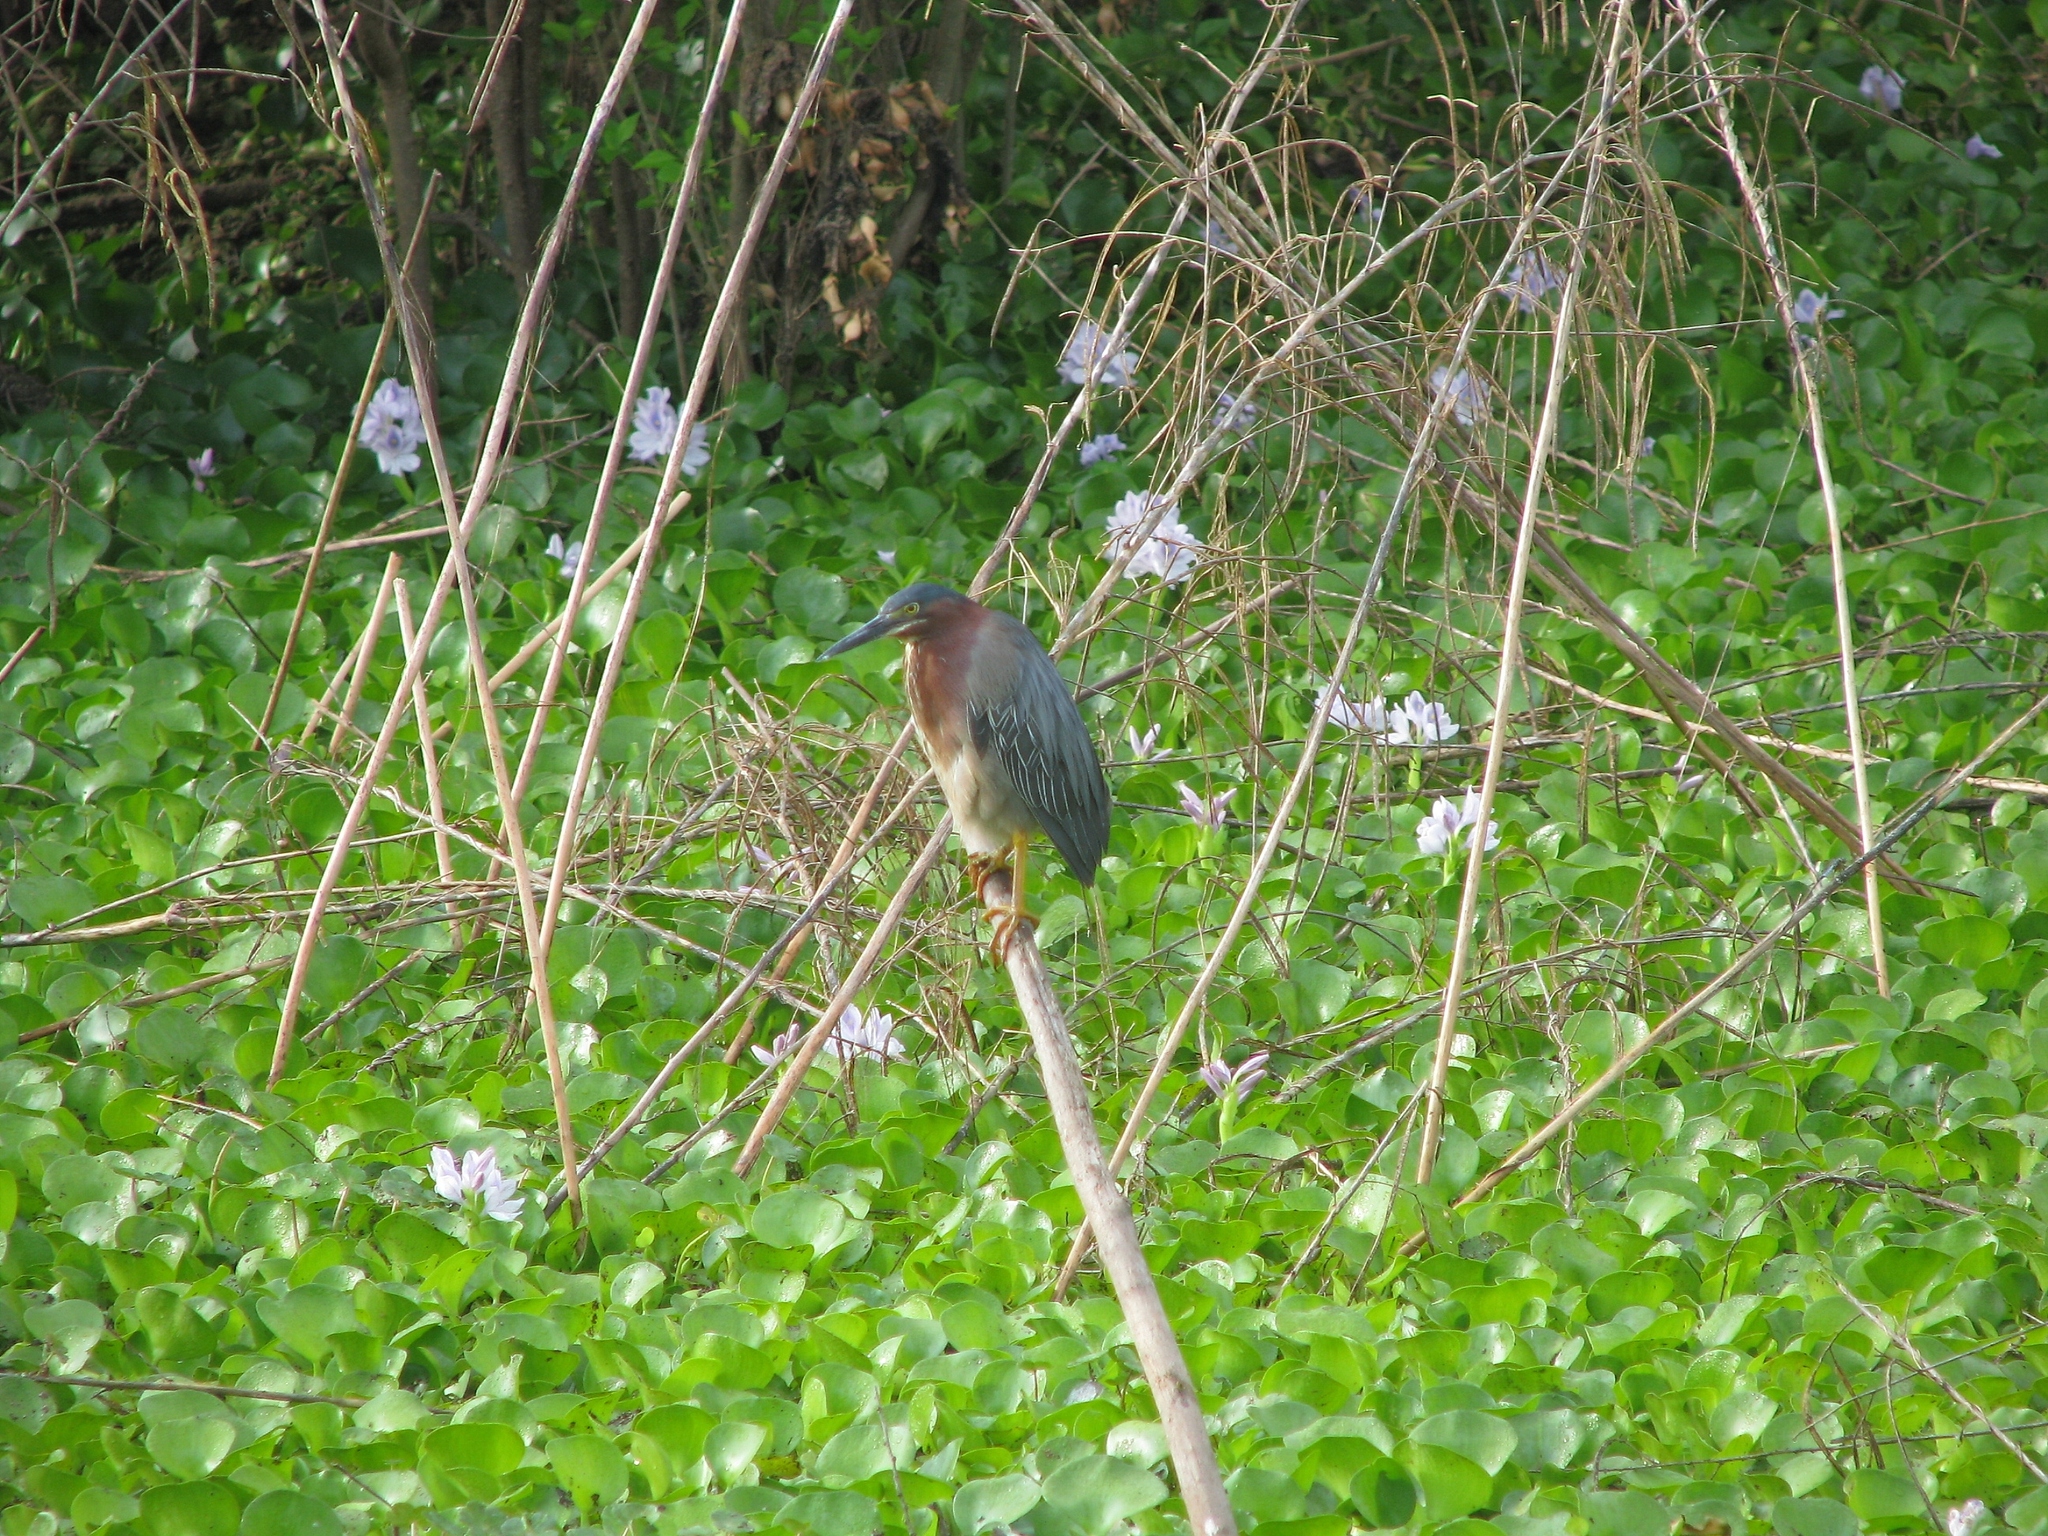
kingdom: Animalia
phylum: Chordata
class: Aves
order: Pelecaniformes
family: Ardeidae
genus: Butorides
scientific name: Butorides virescens
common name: Green heron
